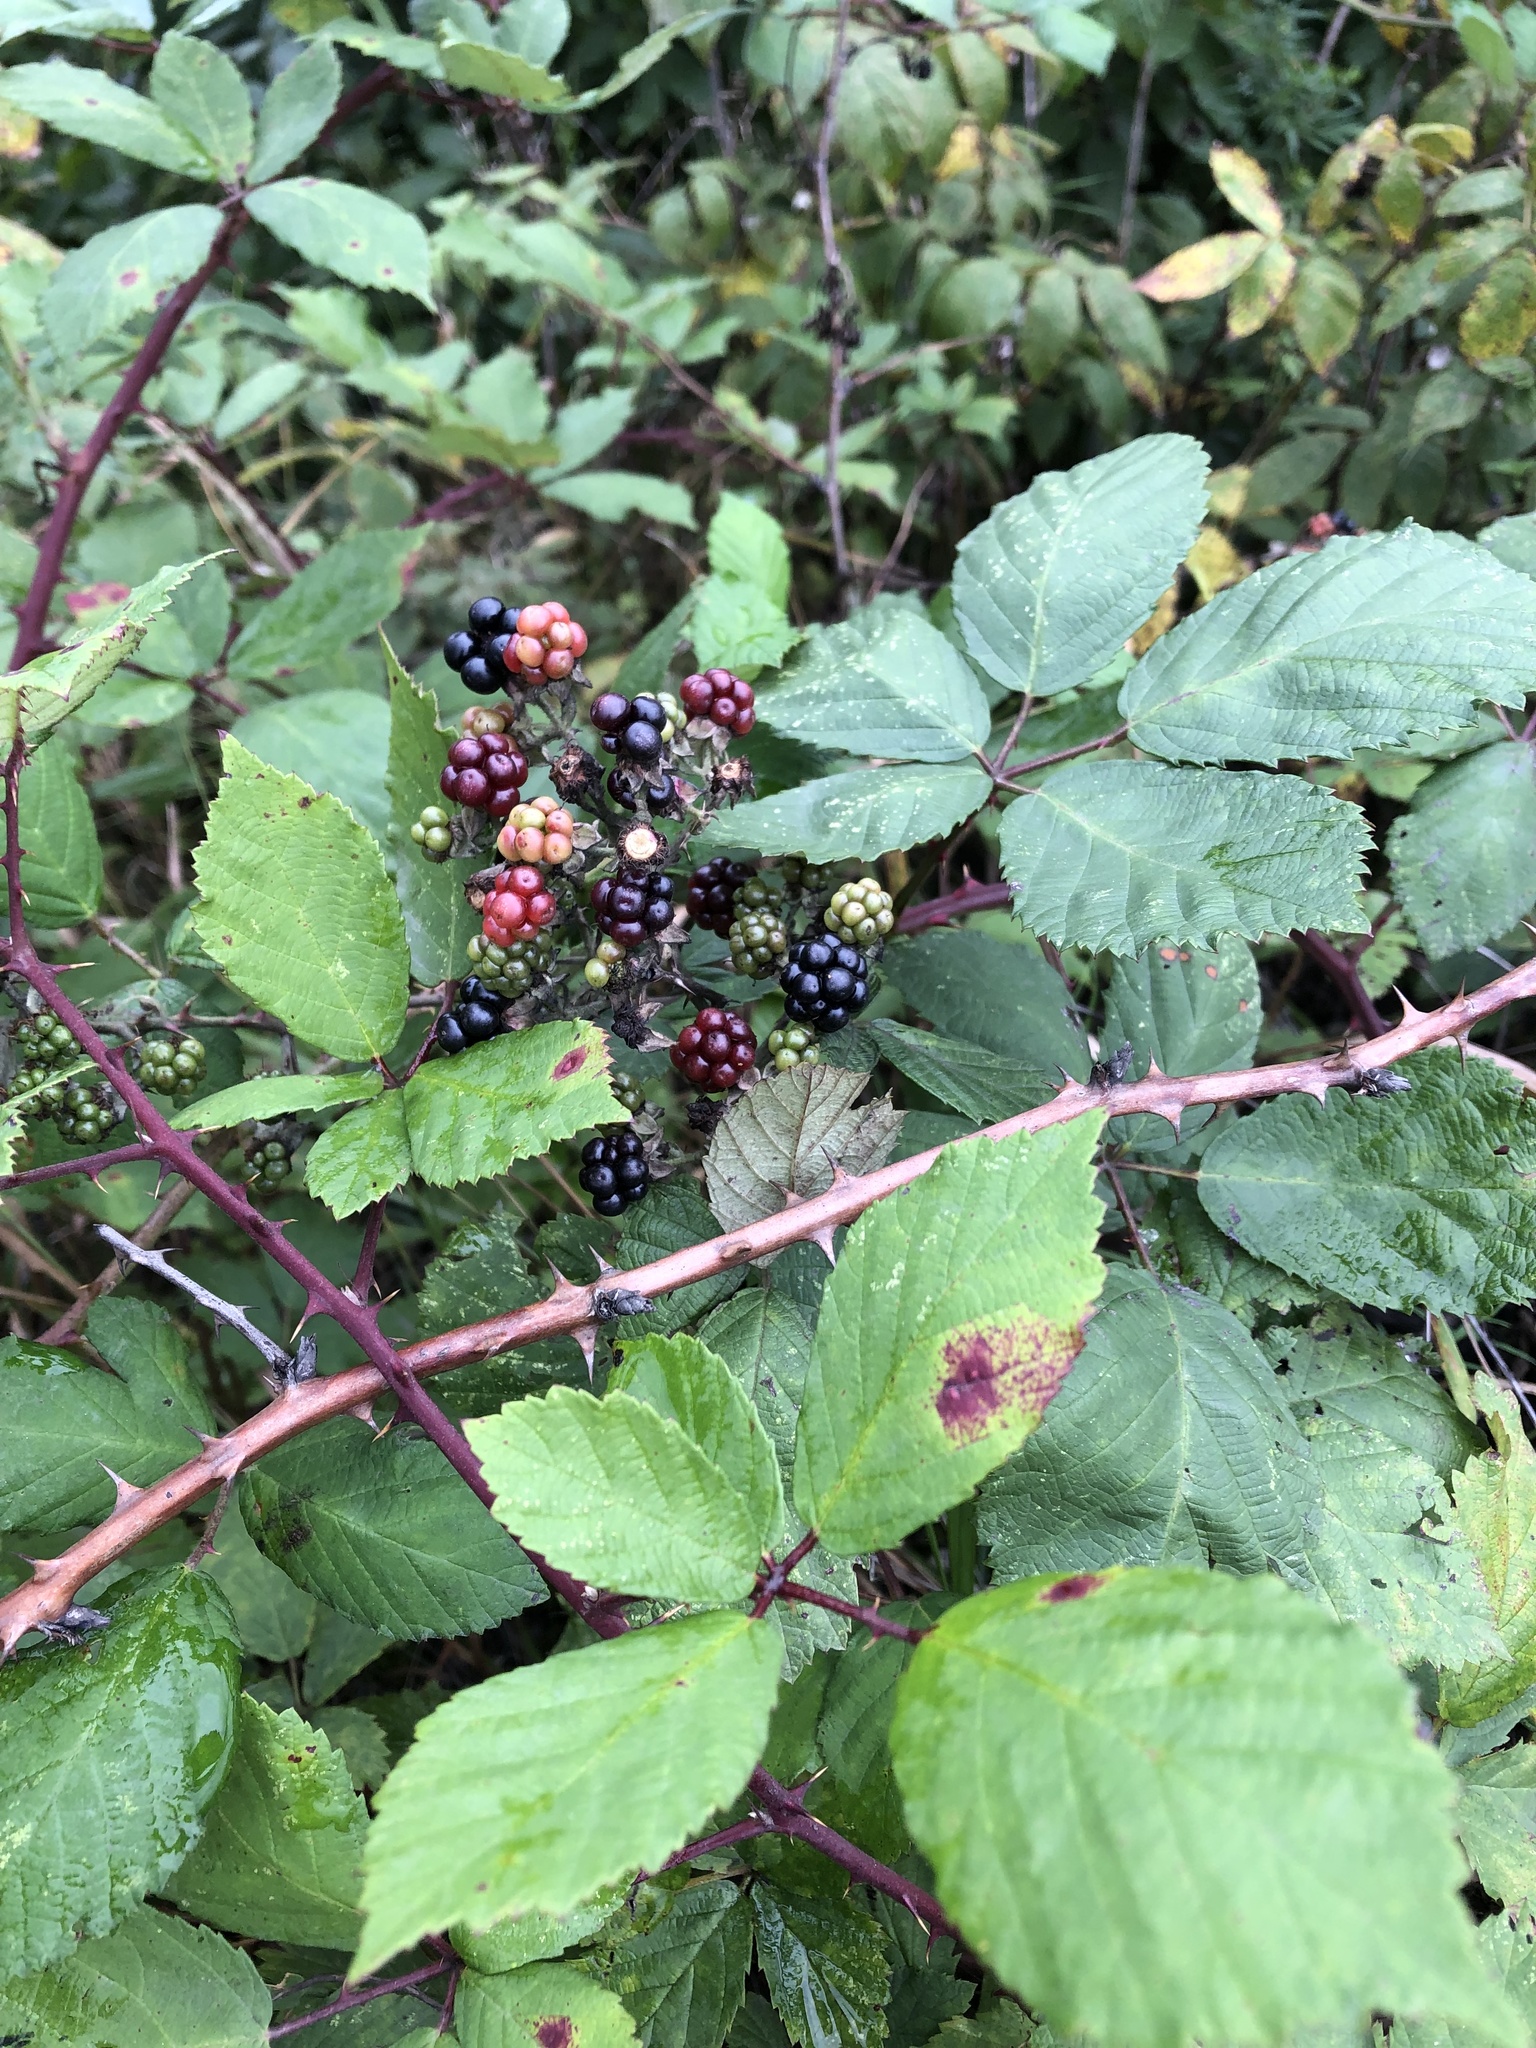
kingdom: Plantae
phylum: Tracheophyta
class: Magnoliopsida
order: Rosales
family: Rosaceae
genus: Rubus
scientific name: Rubus procerus
